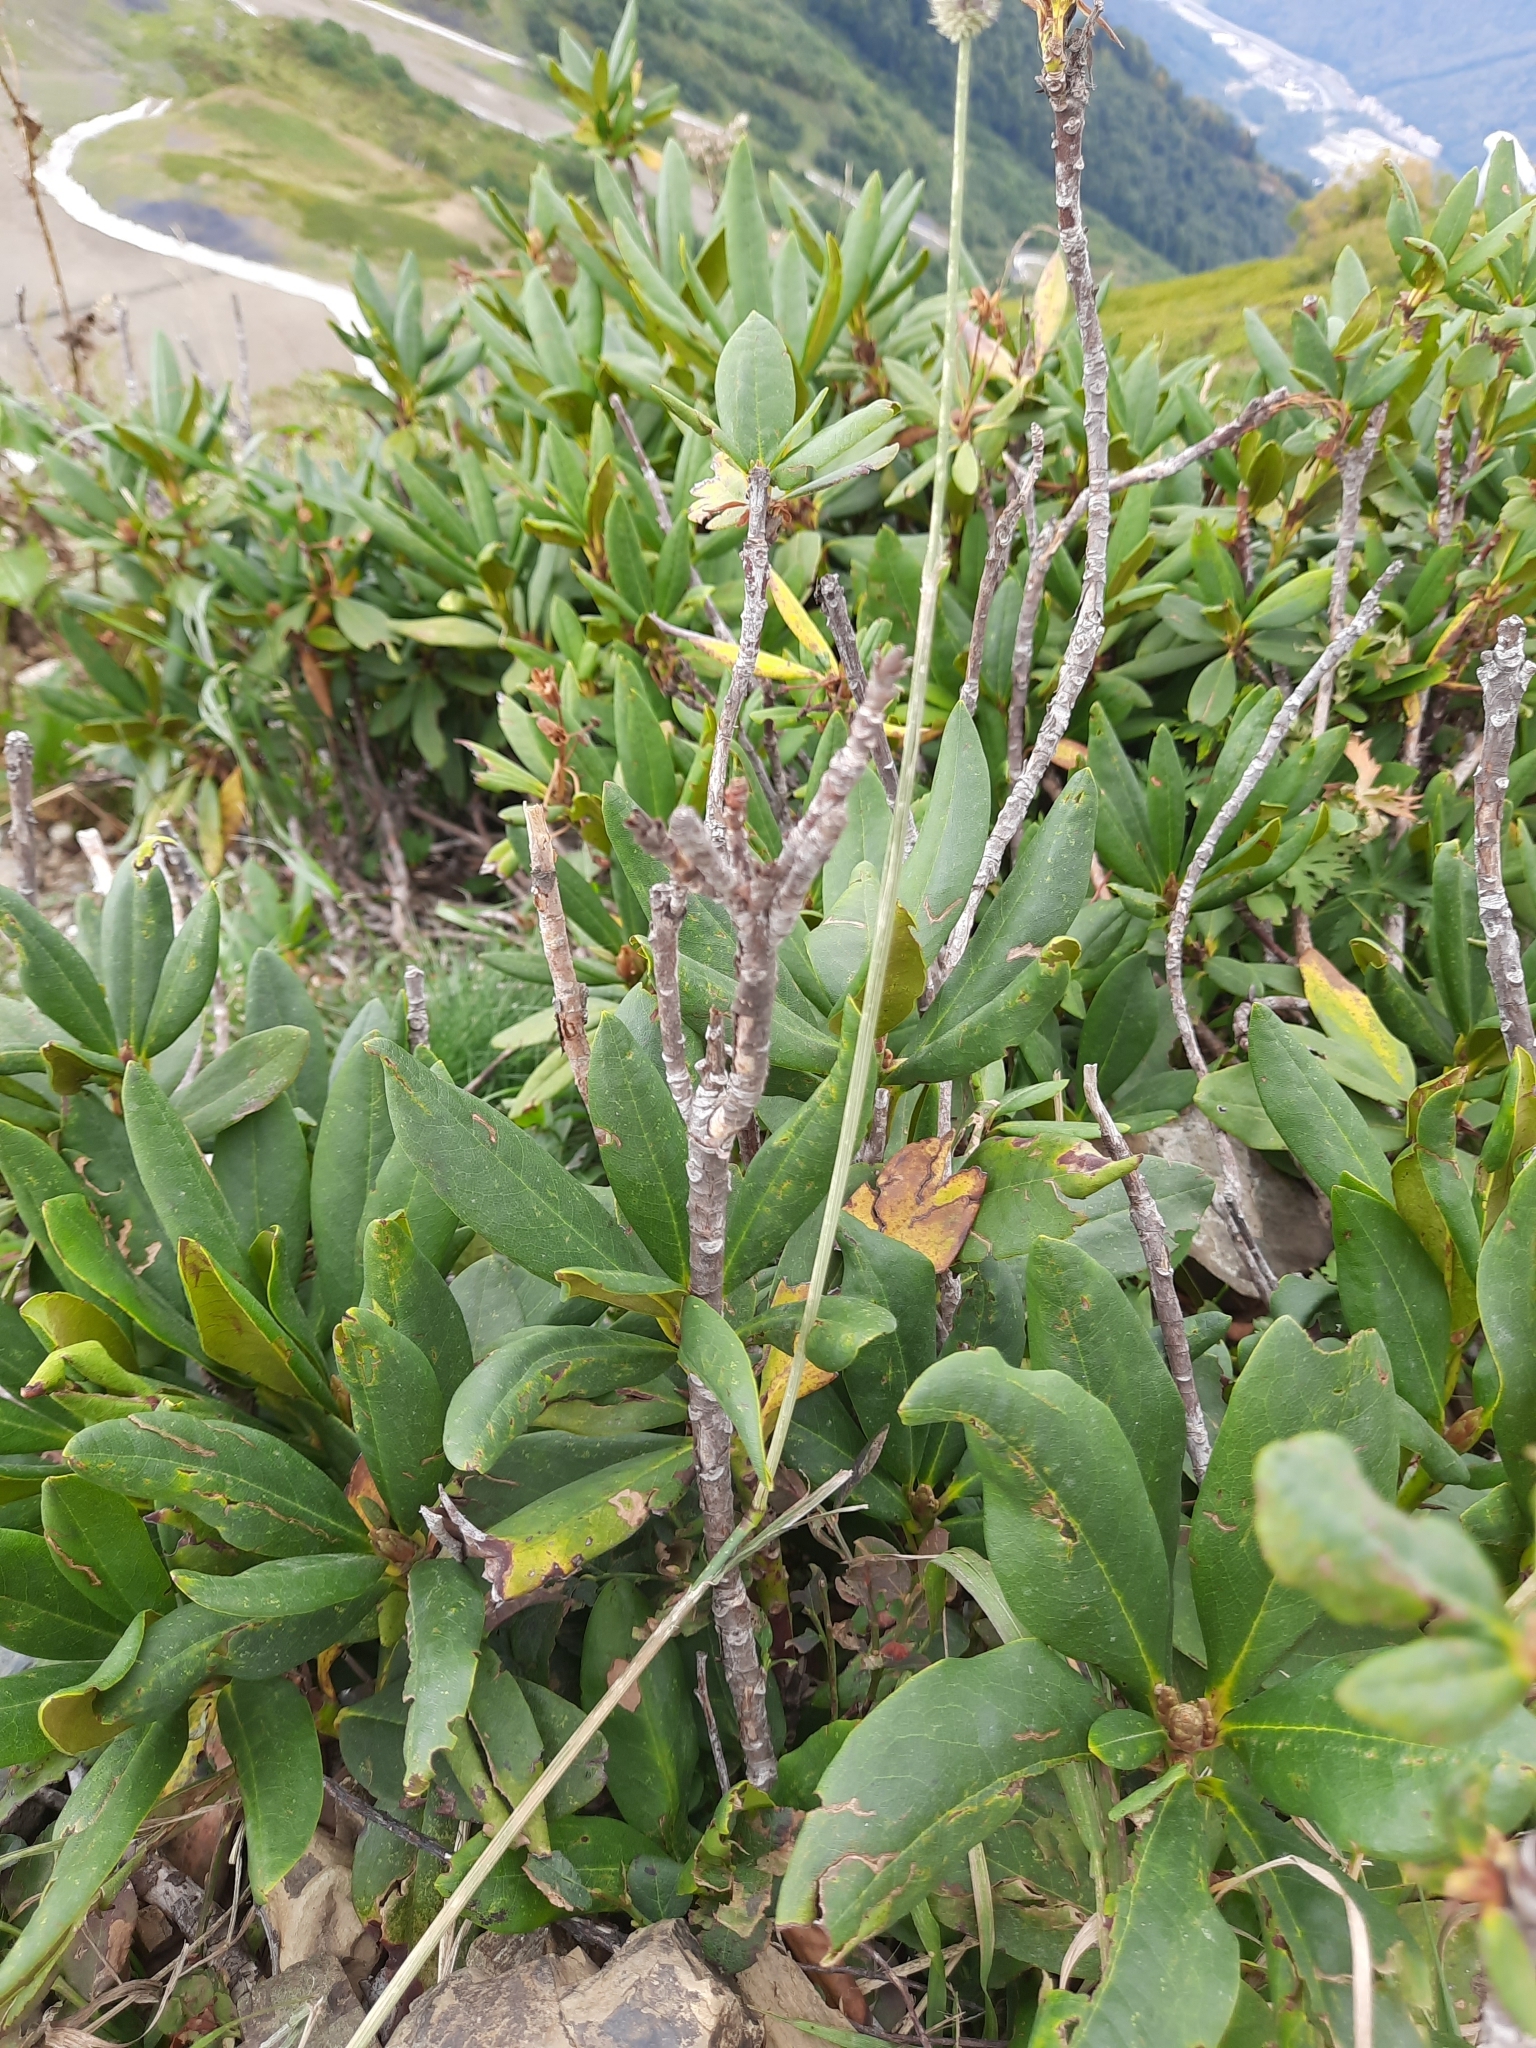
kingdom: Plantae
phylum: Tracheophyta
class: Magnoliopsida
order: Ericales
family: Ericaceae
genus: Rhododendron
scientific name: Rhododendron caucasicum
